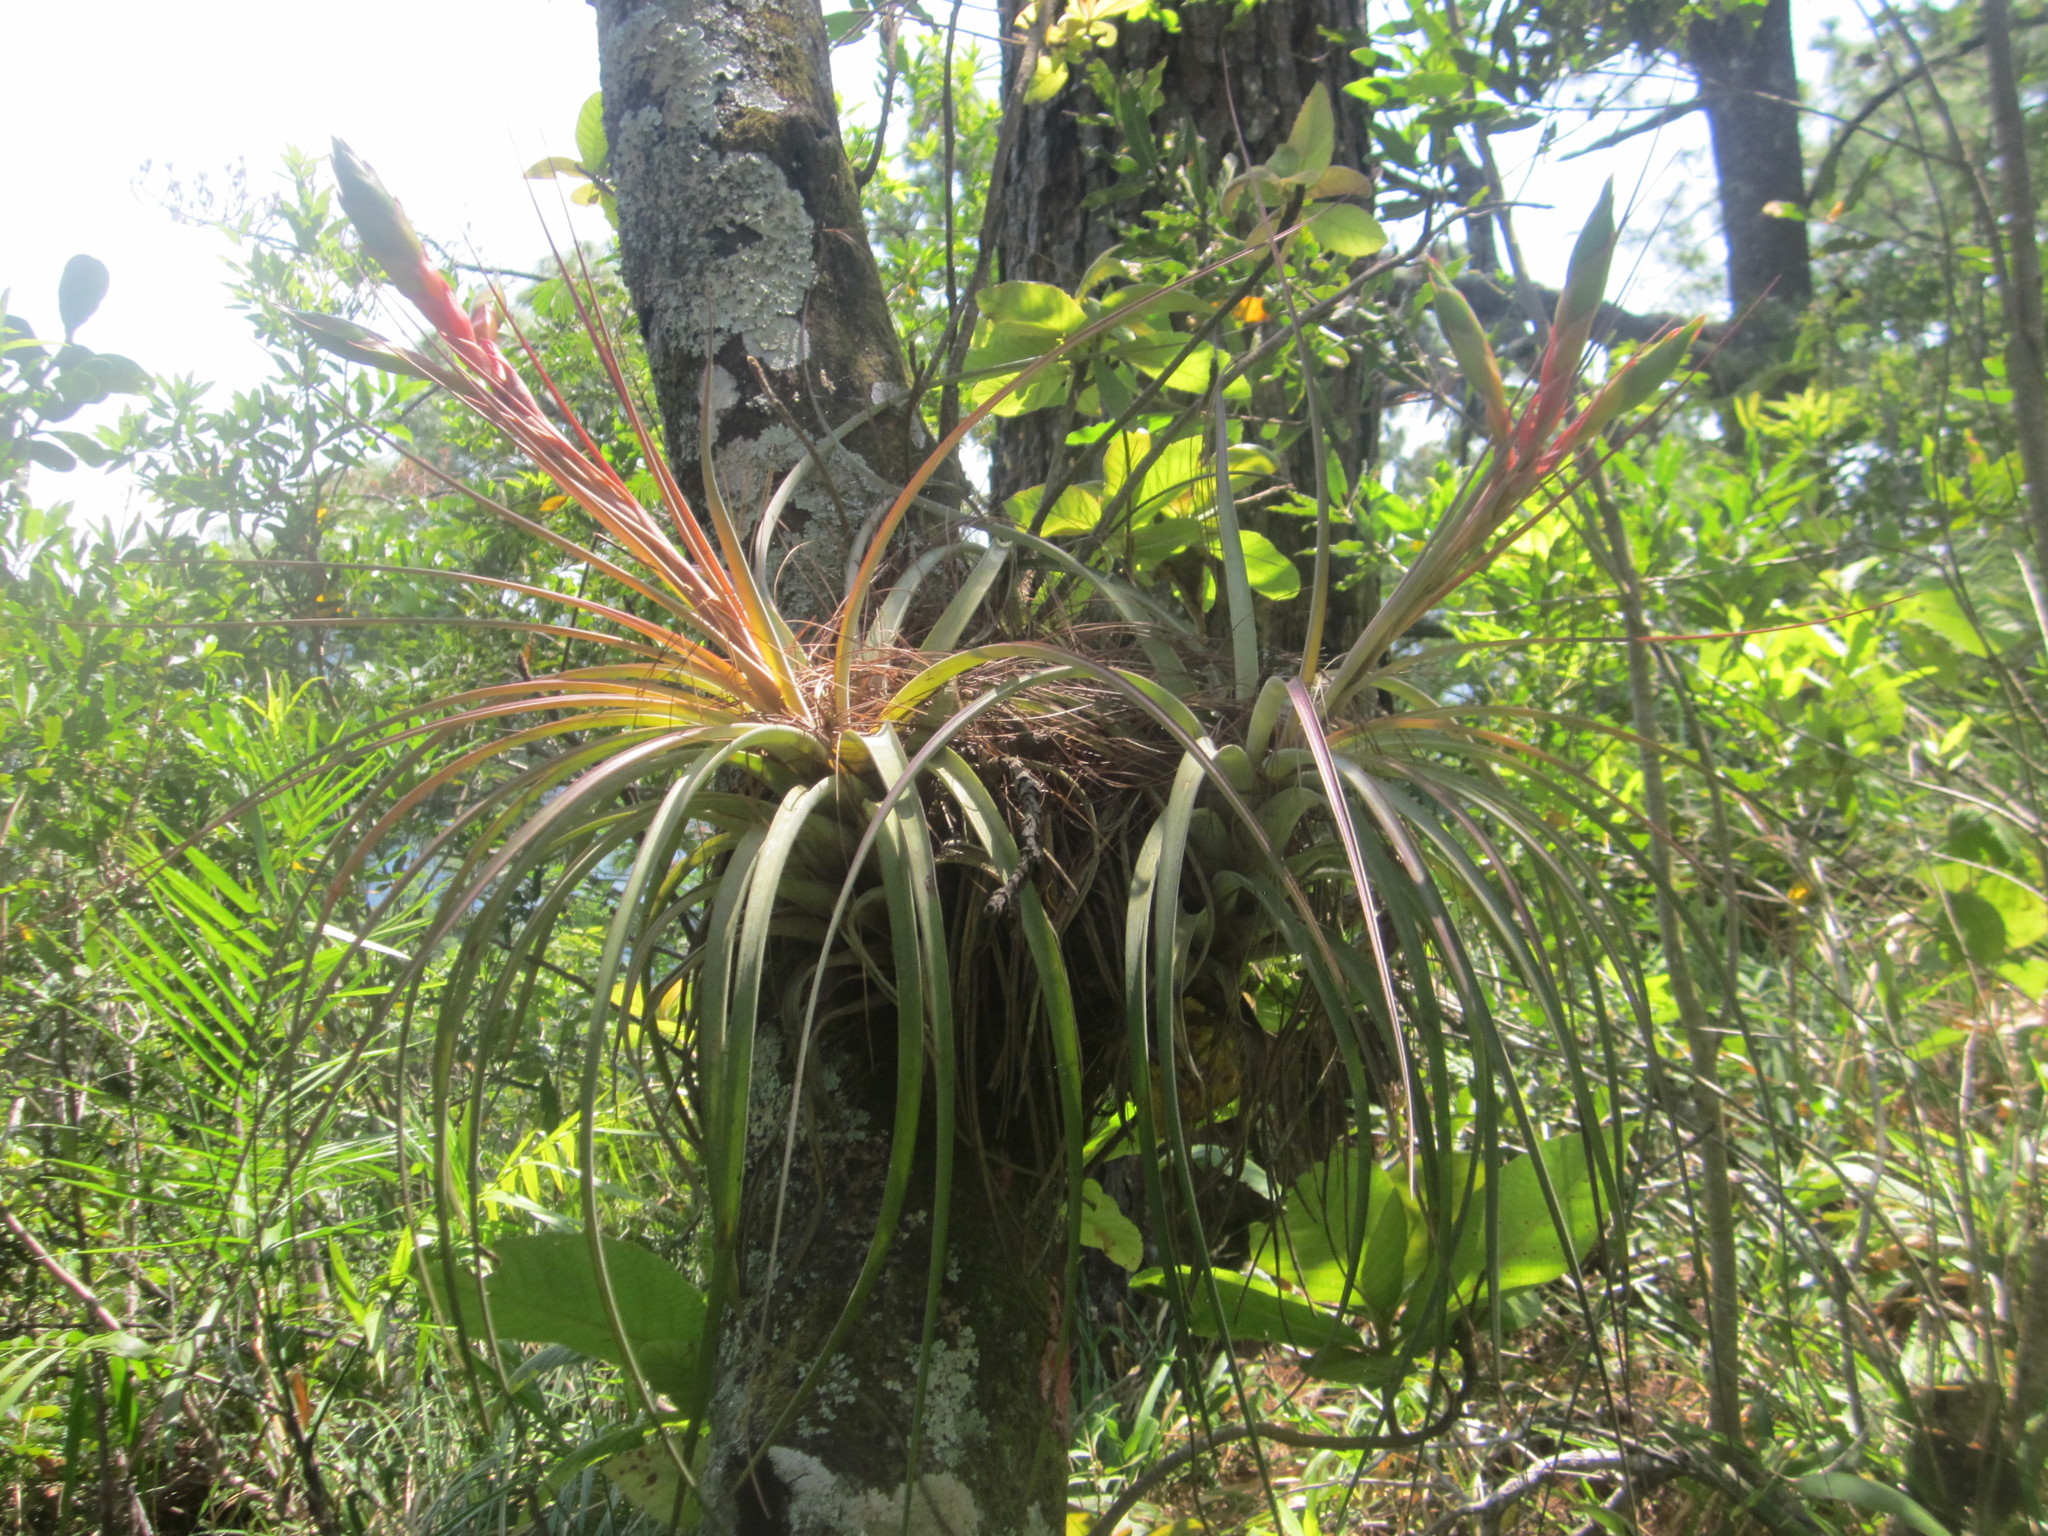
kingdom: Plantae
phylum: Tracheophyta
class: Liliopsida
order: Poales
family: Bromeliaceae
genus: Tillandsia
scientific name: Tillandsia fasciculata
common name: Giant airplant
